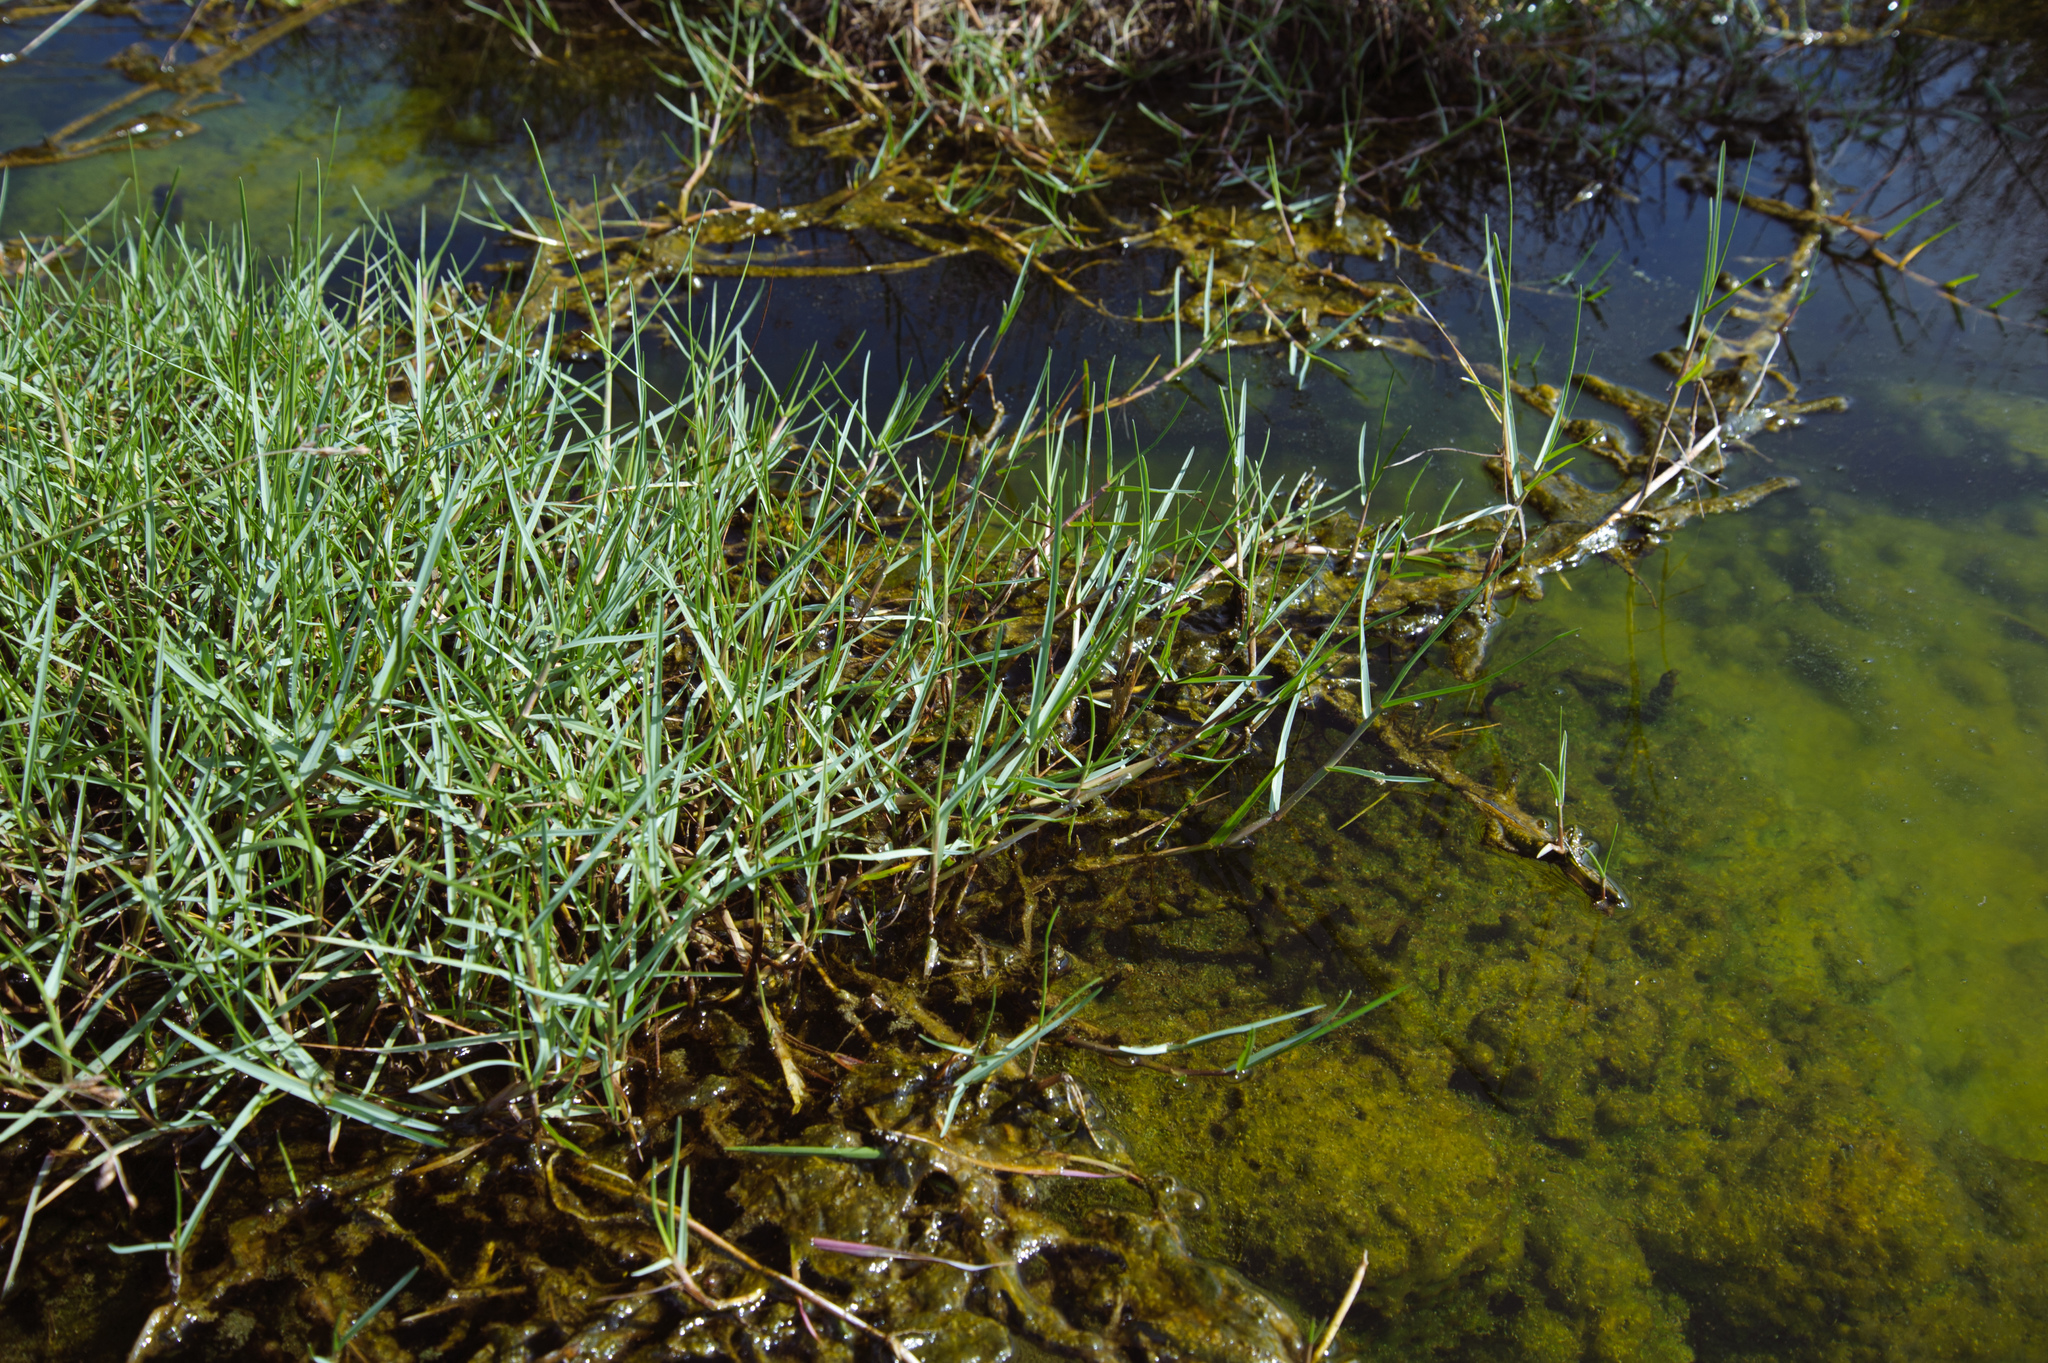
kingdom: Plantae
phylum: Tracheophyta
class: Liliopsida
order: Poales
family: Poaceae
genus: Paspalum
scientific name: Paspalum vaginatum
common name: Seashore paspalum
